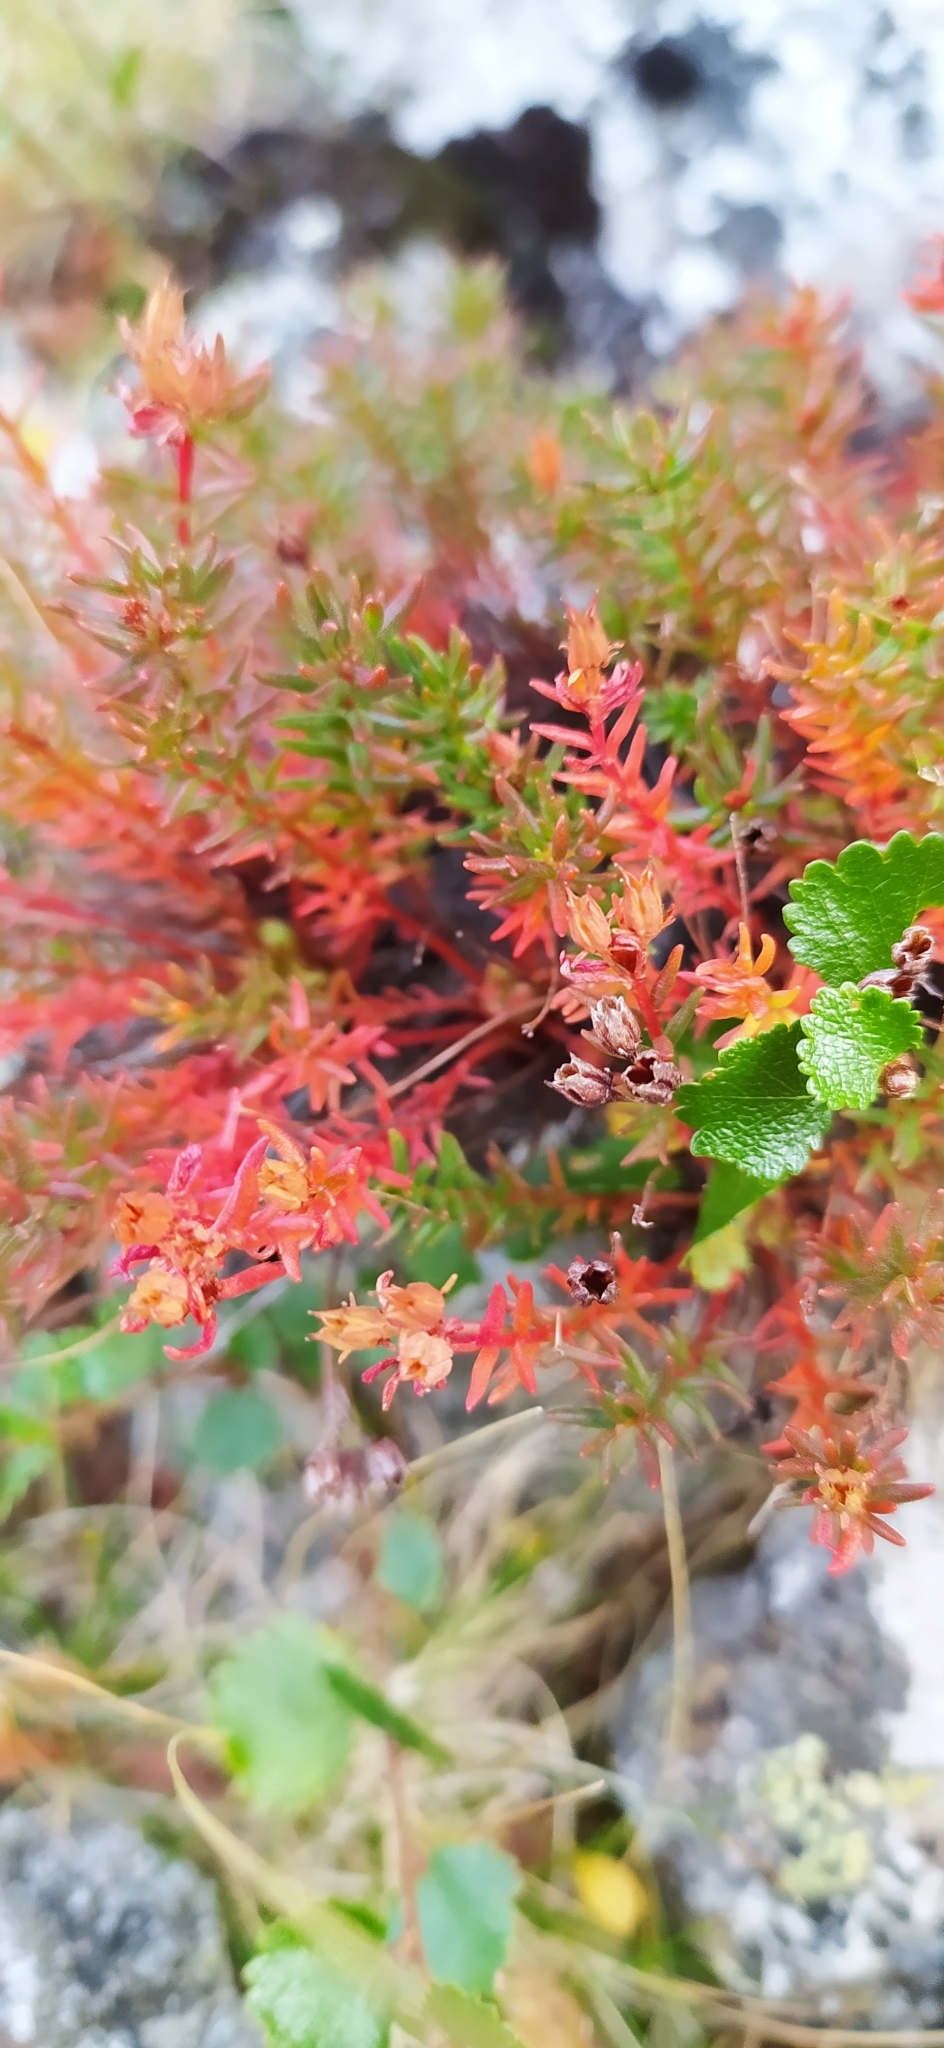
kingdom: Plantae
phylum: Tracheophyta
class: Magnoliopsida
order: Saxifragales
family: Crassulaceae
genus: Rhodiola
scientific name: Rhodiola quadrifida
